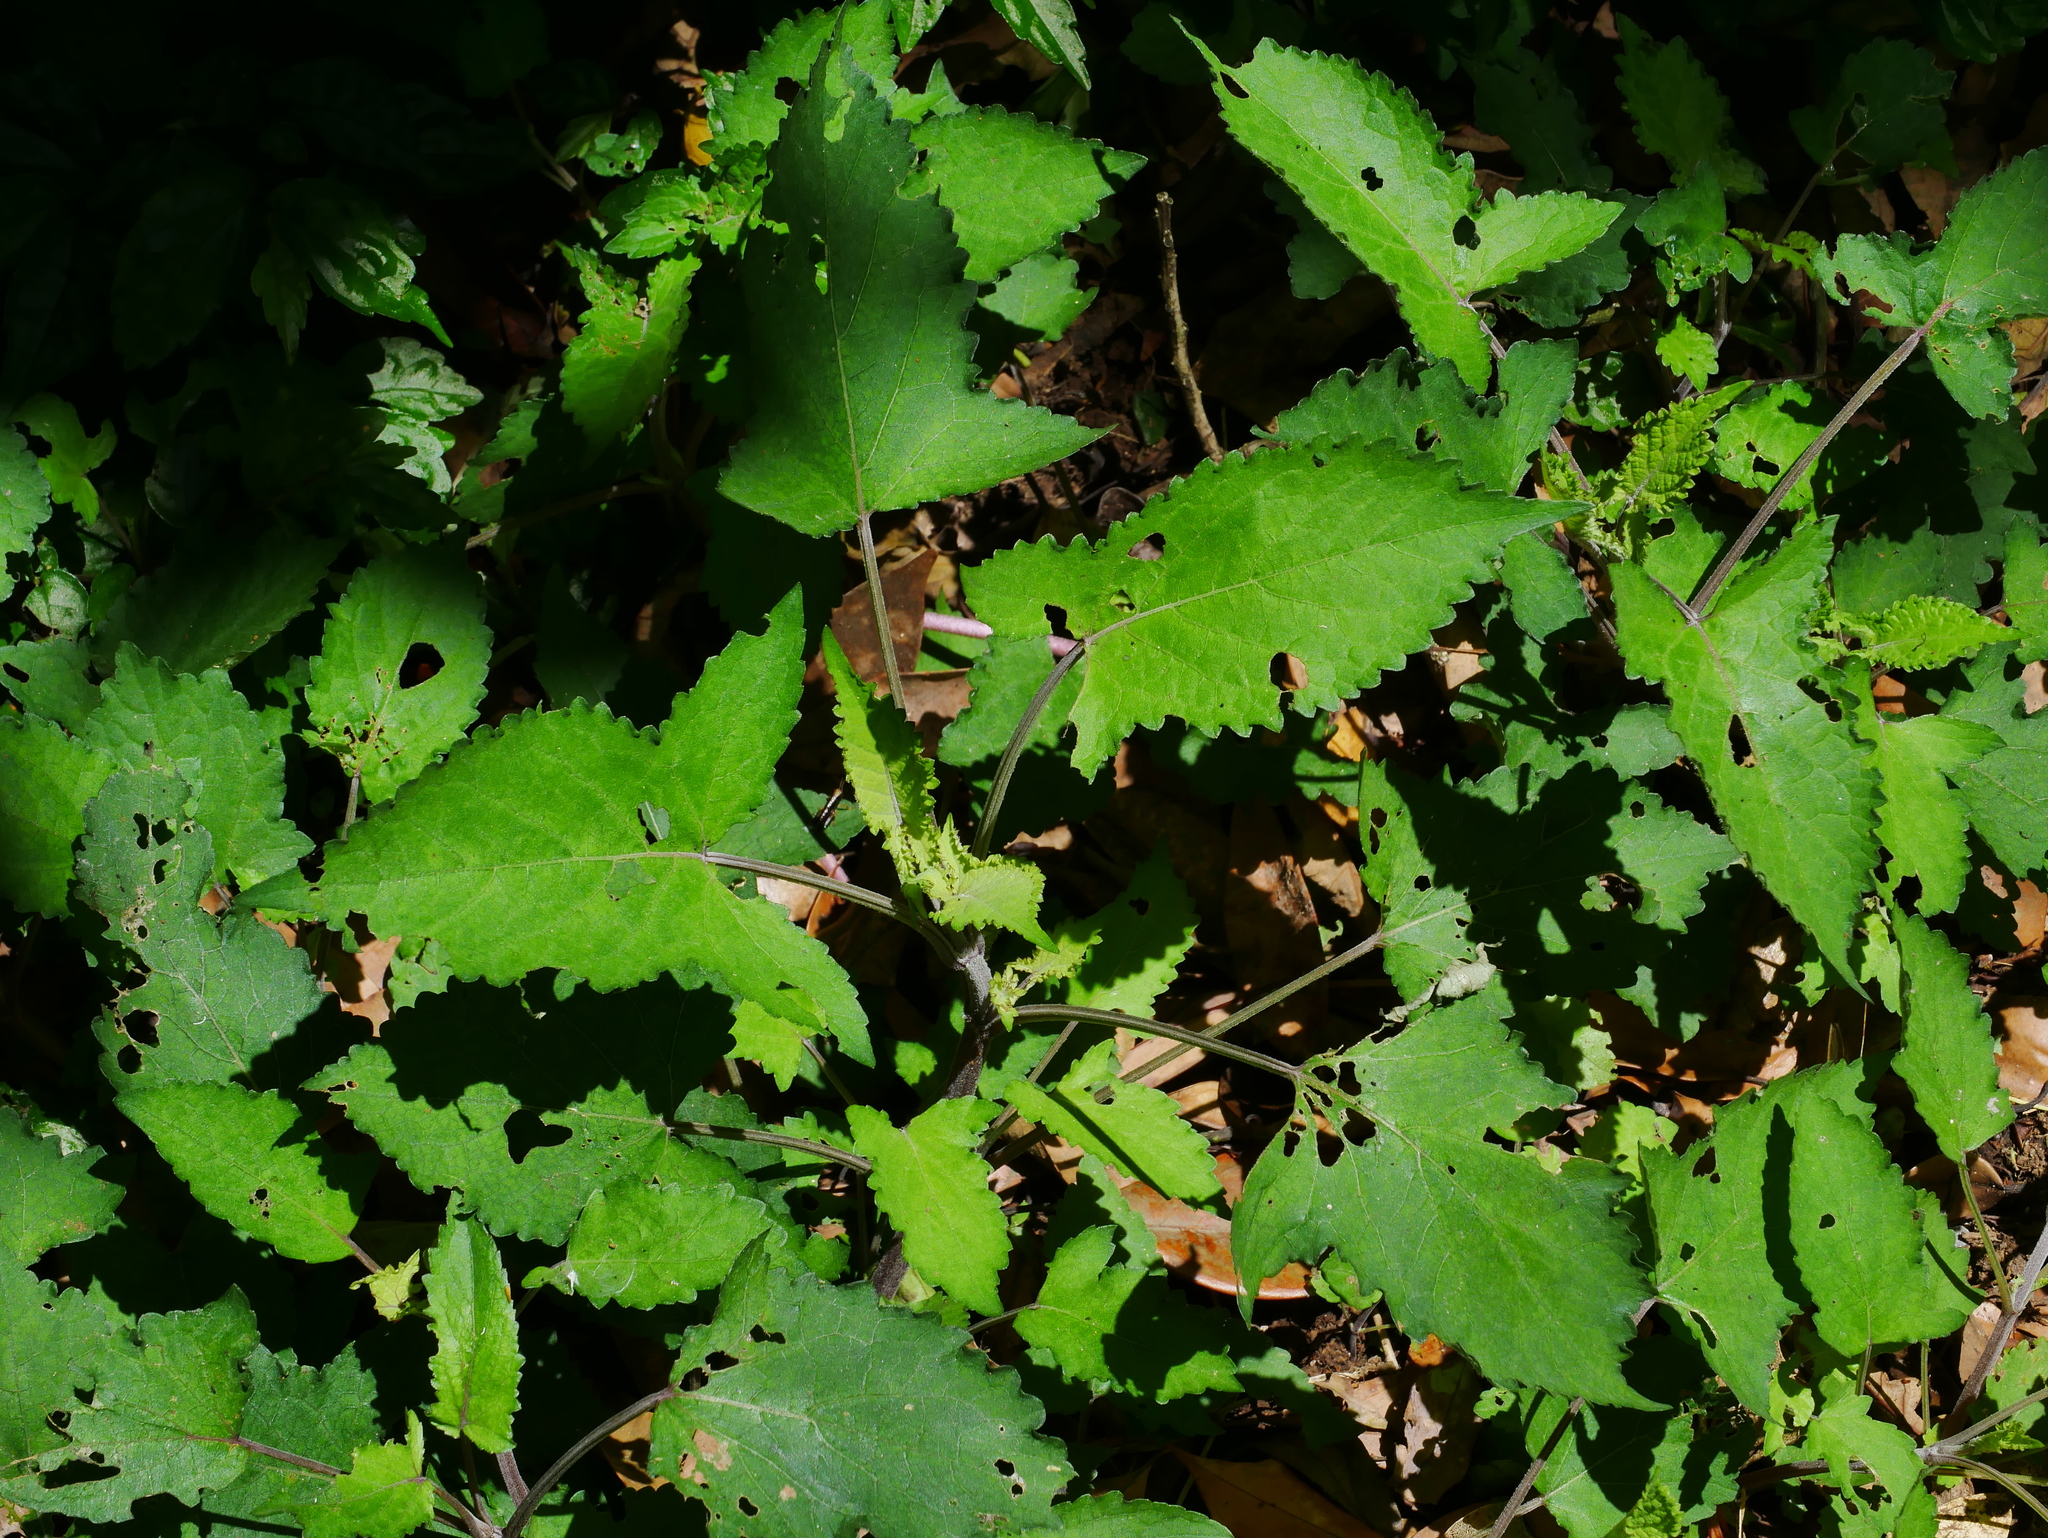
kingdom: Plantae
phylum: Tracheophyta
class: Magnoliopsida
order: Lamiales
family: Lamiaceae
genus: Salvia
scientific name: Salvia japonica
